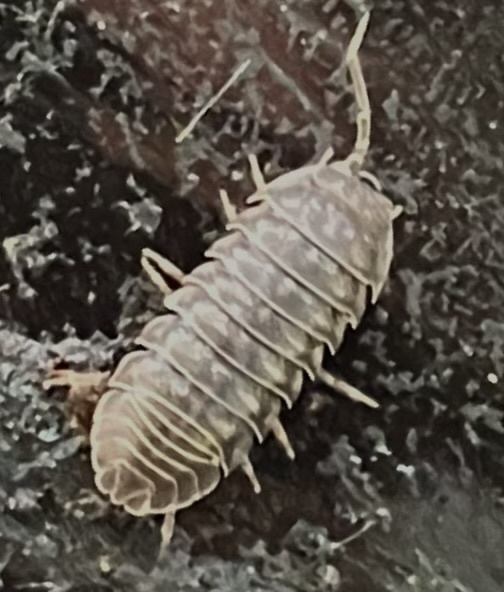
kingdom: Animalia
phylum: Arthropoda
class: Malacostraca
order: Isopoda
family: Armadillidiidae
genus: Armadillidium
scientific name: Armadillidium nasatum
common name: Isopod
